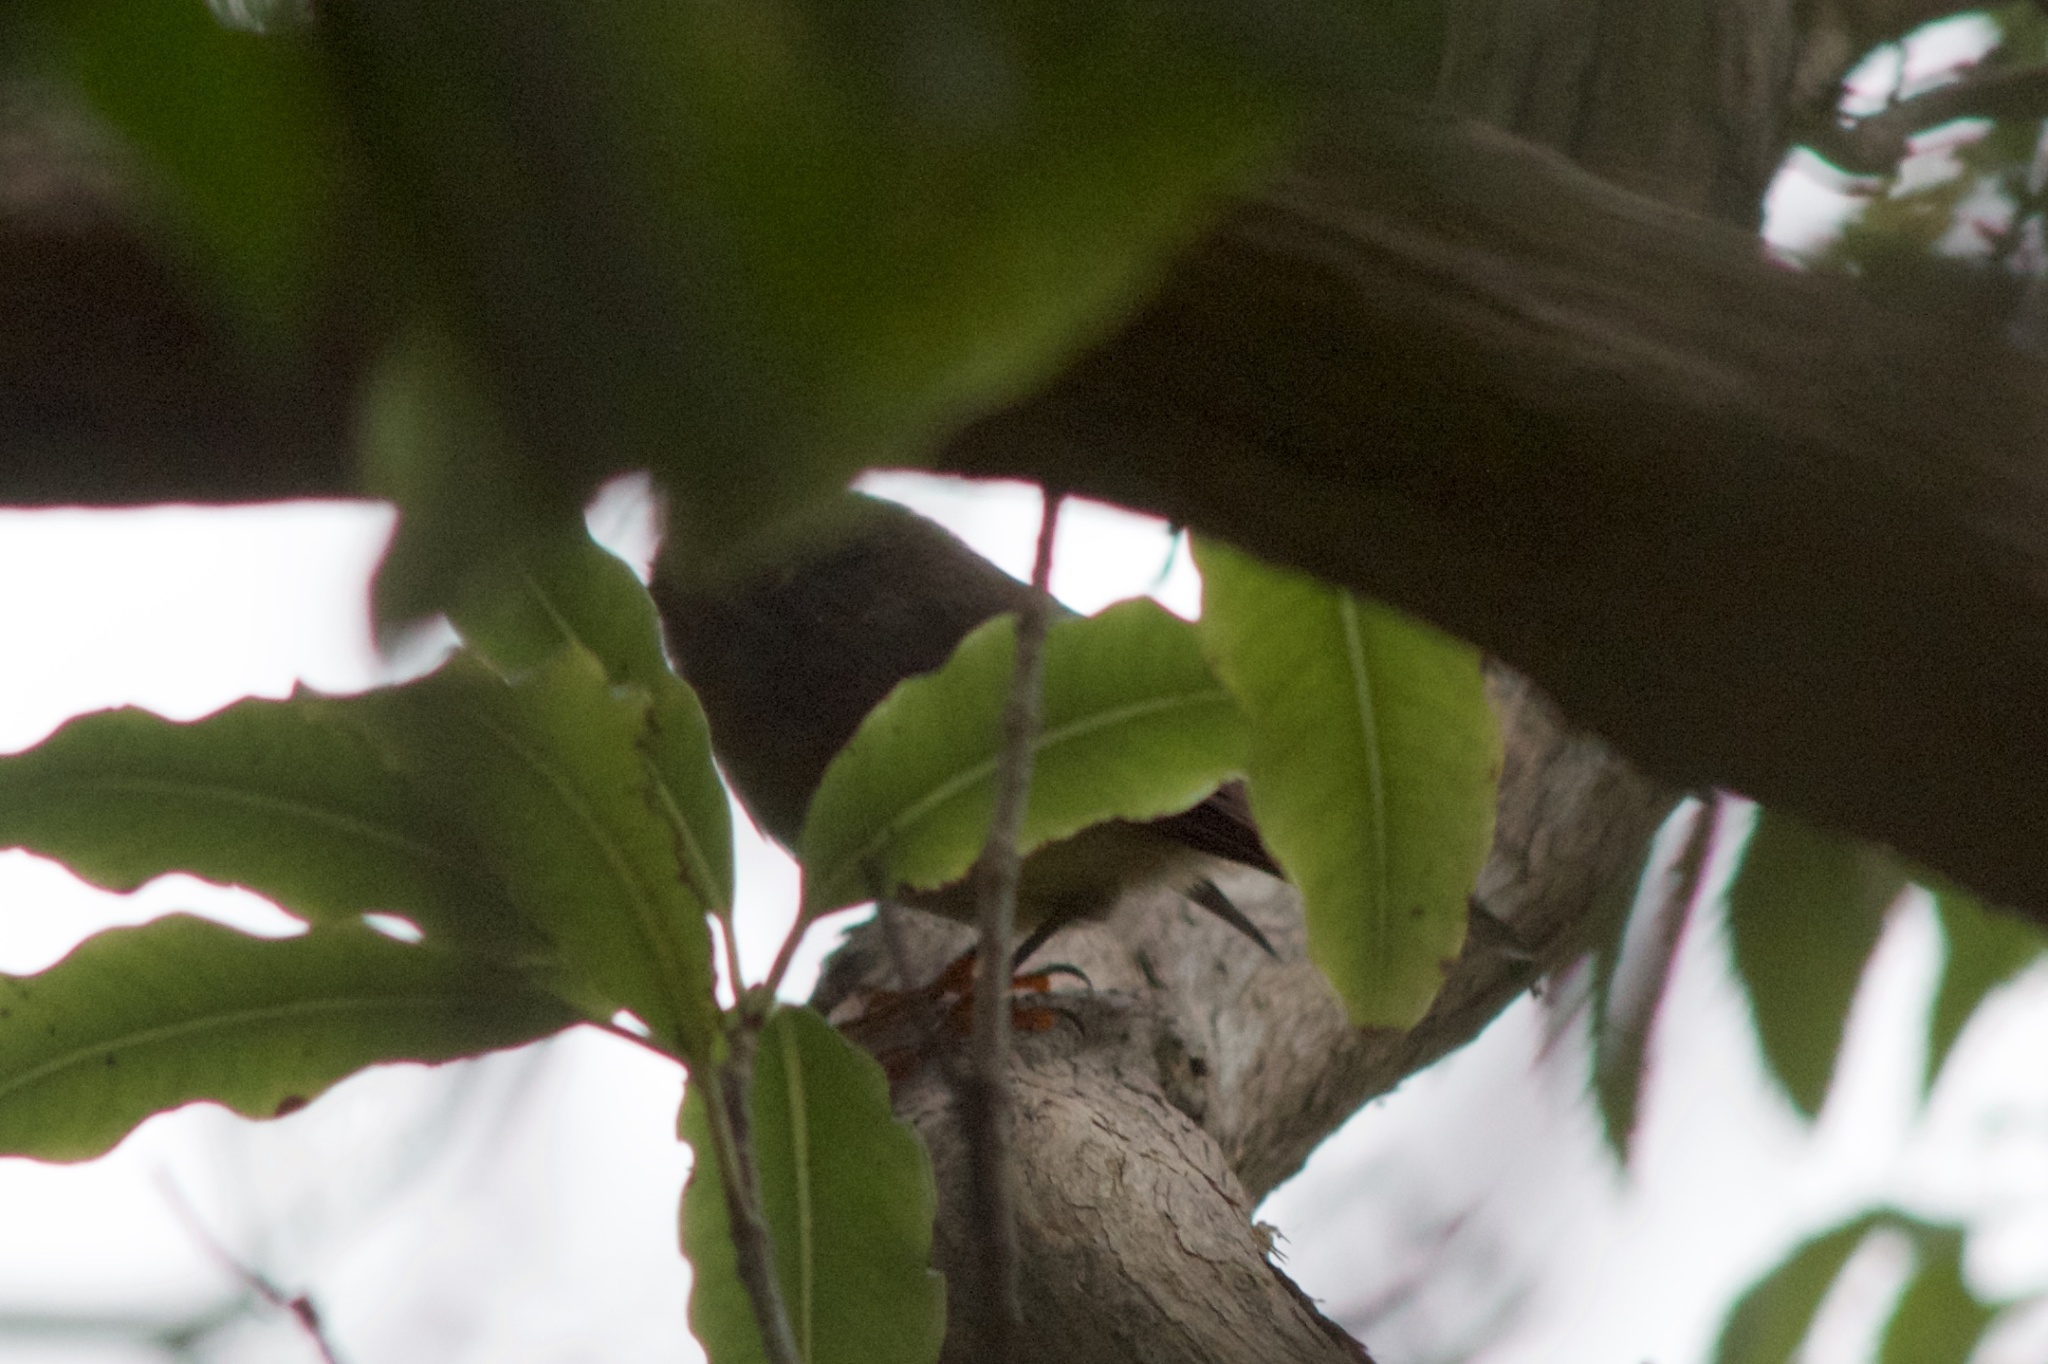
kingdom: Animalia
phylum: Chordata
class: Aves
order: Passeriformes
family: Petroicidae
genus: Petroica
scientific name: Petroica macrocephala
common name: Tomtit
